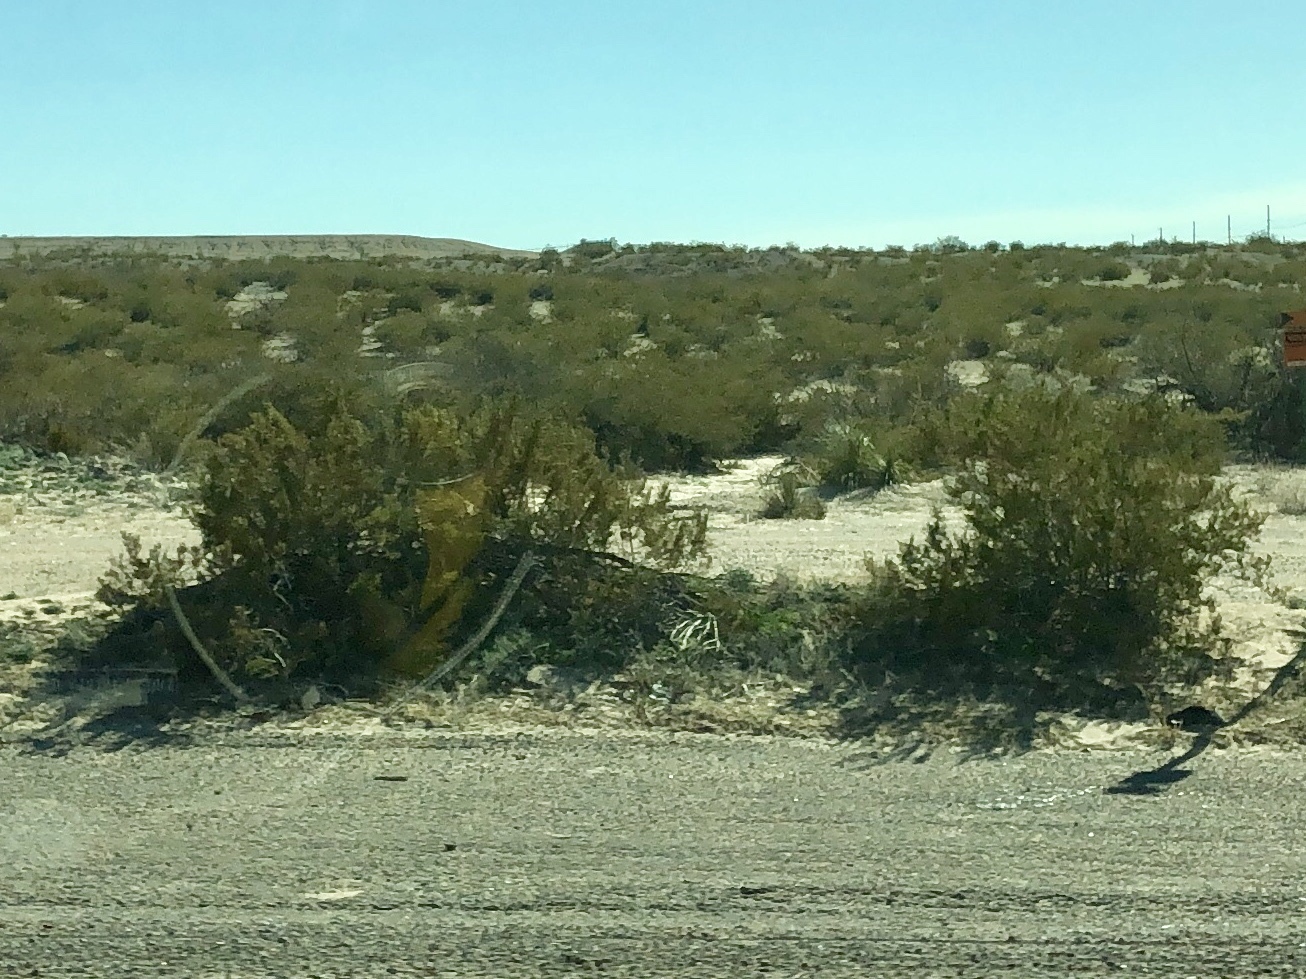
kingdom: Plantae
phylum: Tracheophyta
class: Magnoliopsida
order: Zygophyllales
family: Zygophyllaceae
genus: Larrea
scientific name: Larrea tridentata
